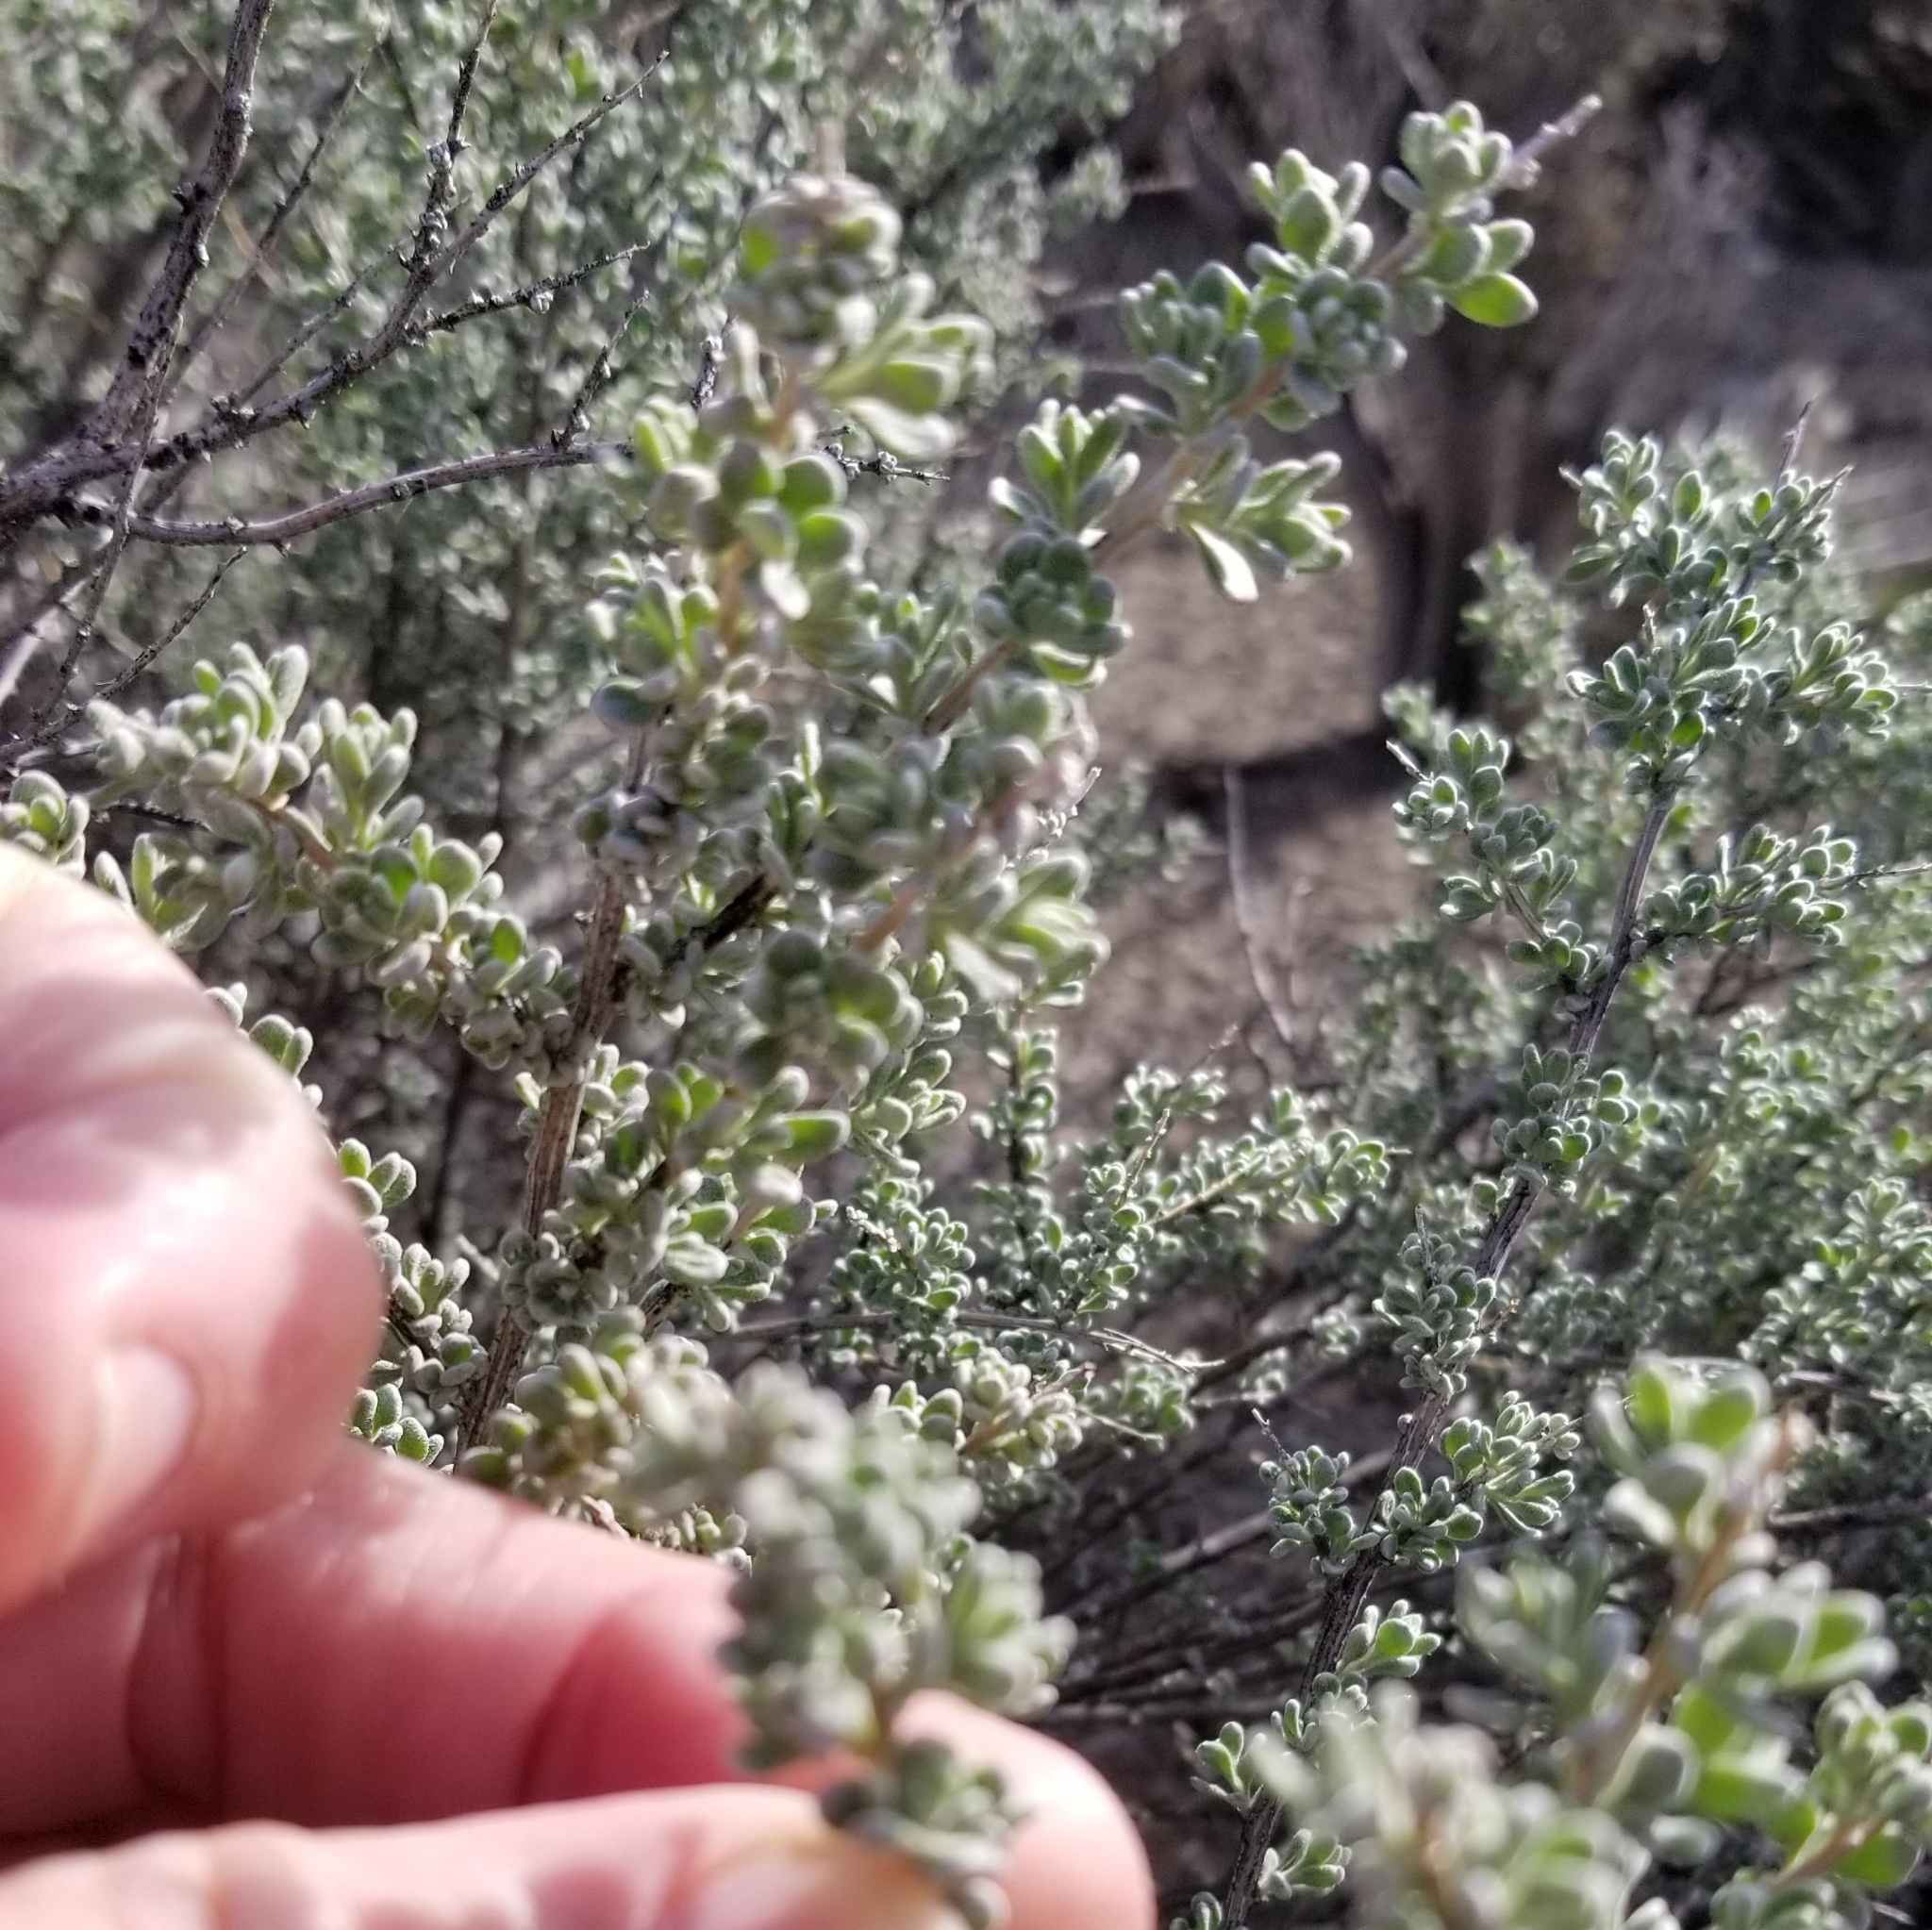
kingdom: Plantae
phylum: Tracheophyta
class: Magnoliopsida
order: Caryophyllales
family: Amaranthaceae
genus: Grayia
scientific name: Grayia spinosa
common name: Spiny hopsage
